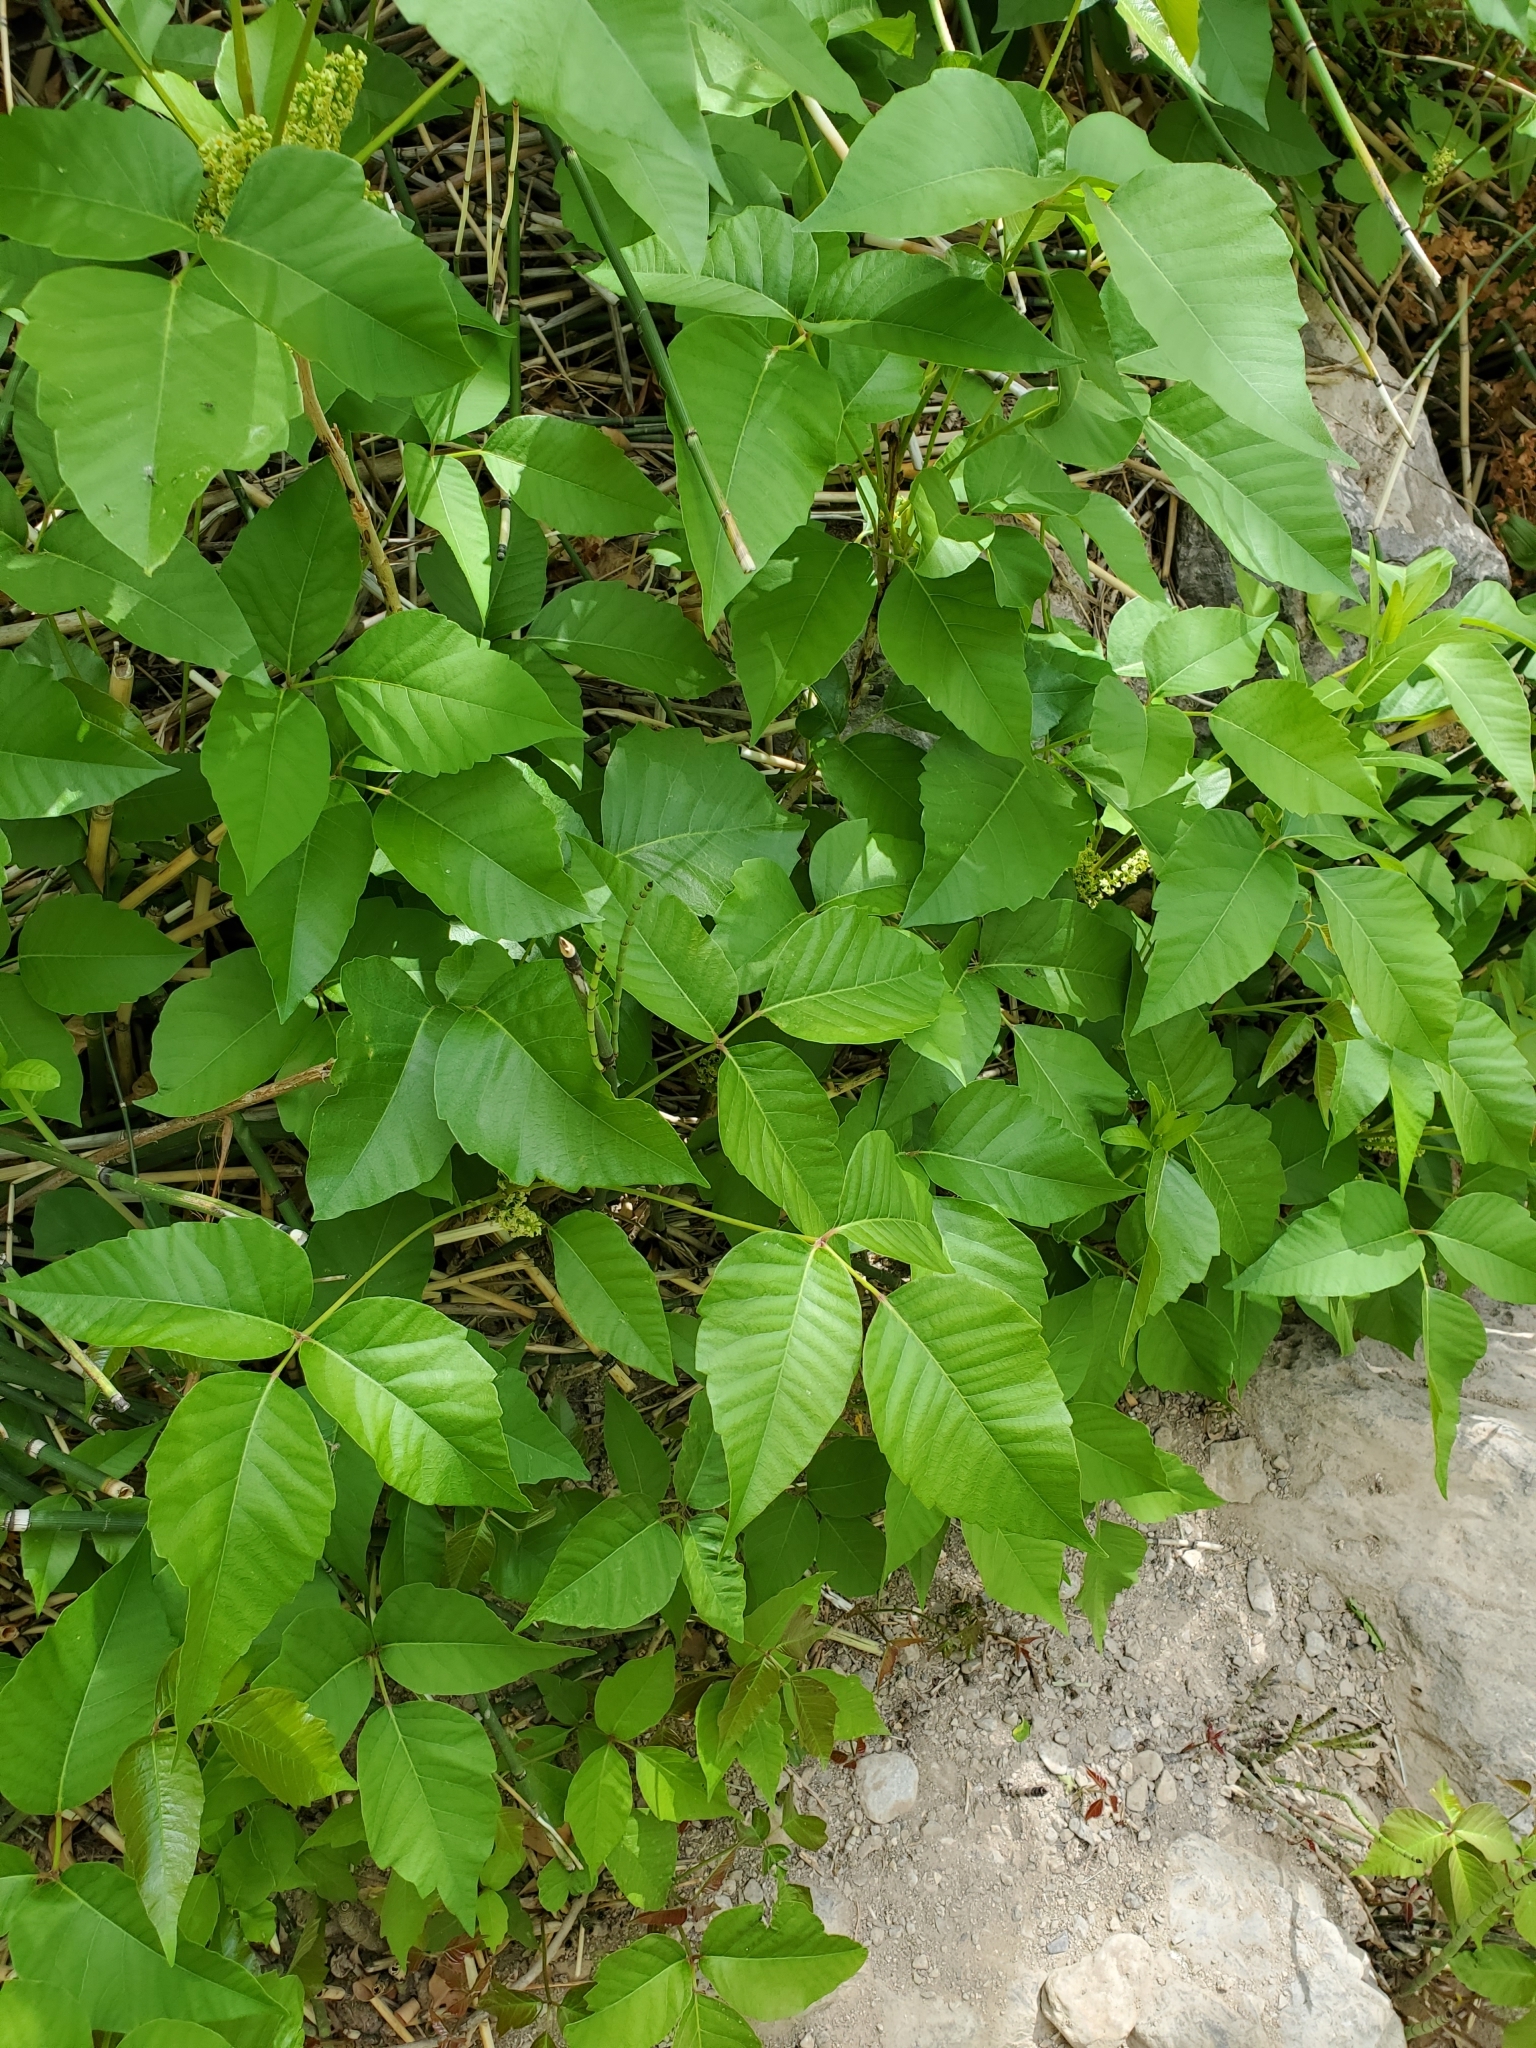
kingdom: Plantae
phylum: Tracheophyta
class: Magnoliopsida
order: Sapindales
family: Anacardiaceae
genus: Toxicodendron
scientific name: Toxicodendron rydbergii
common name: Rydberg's poison-ivy
